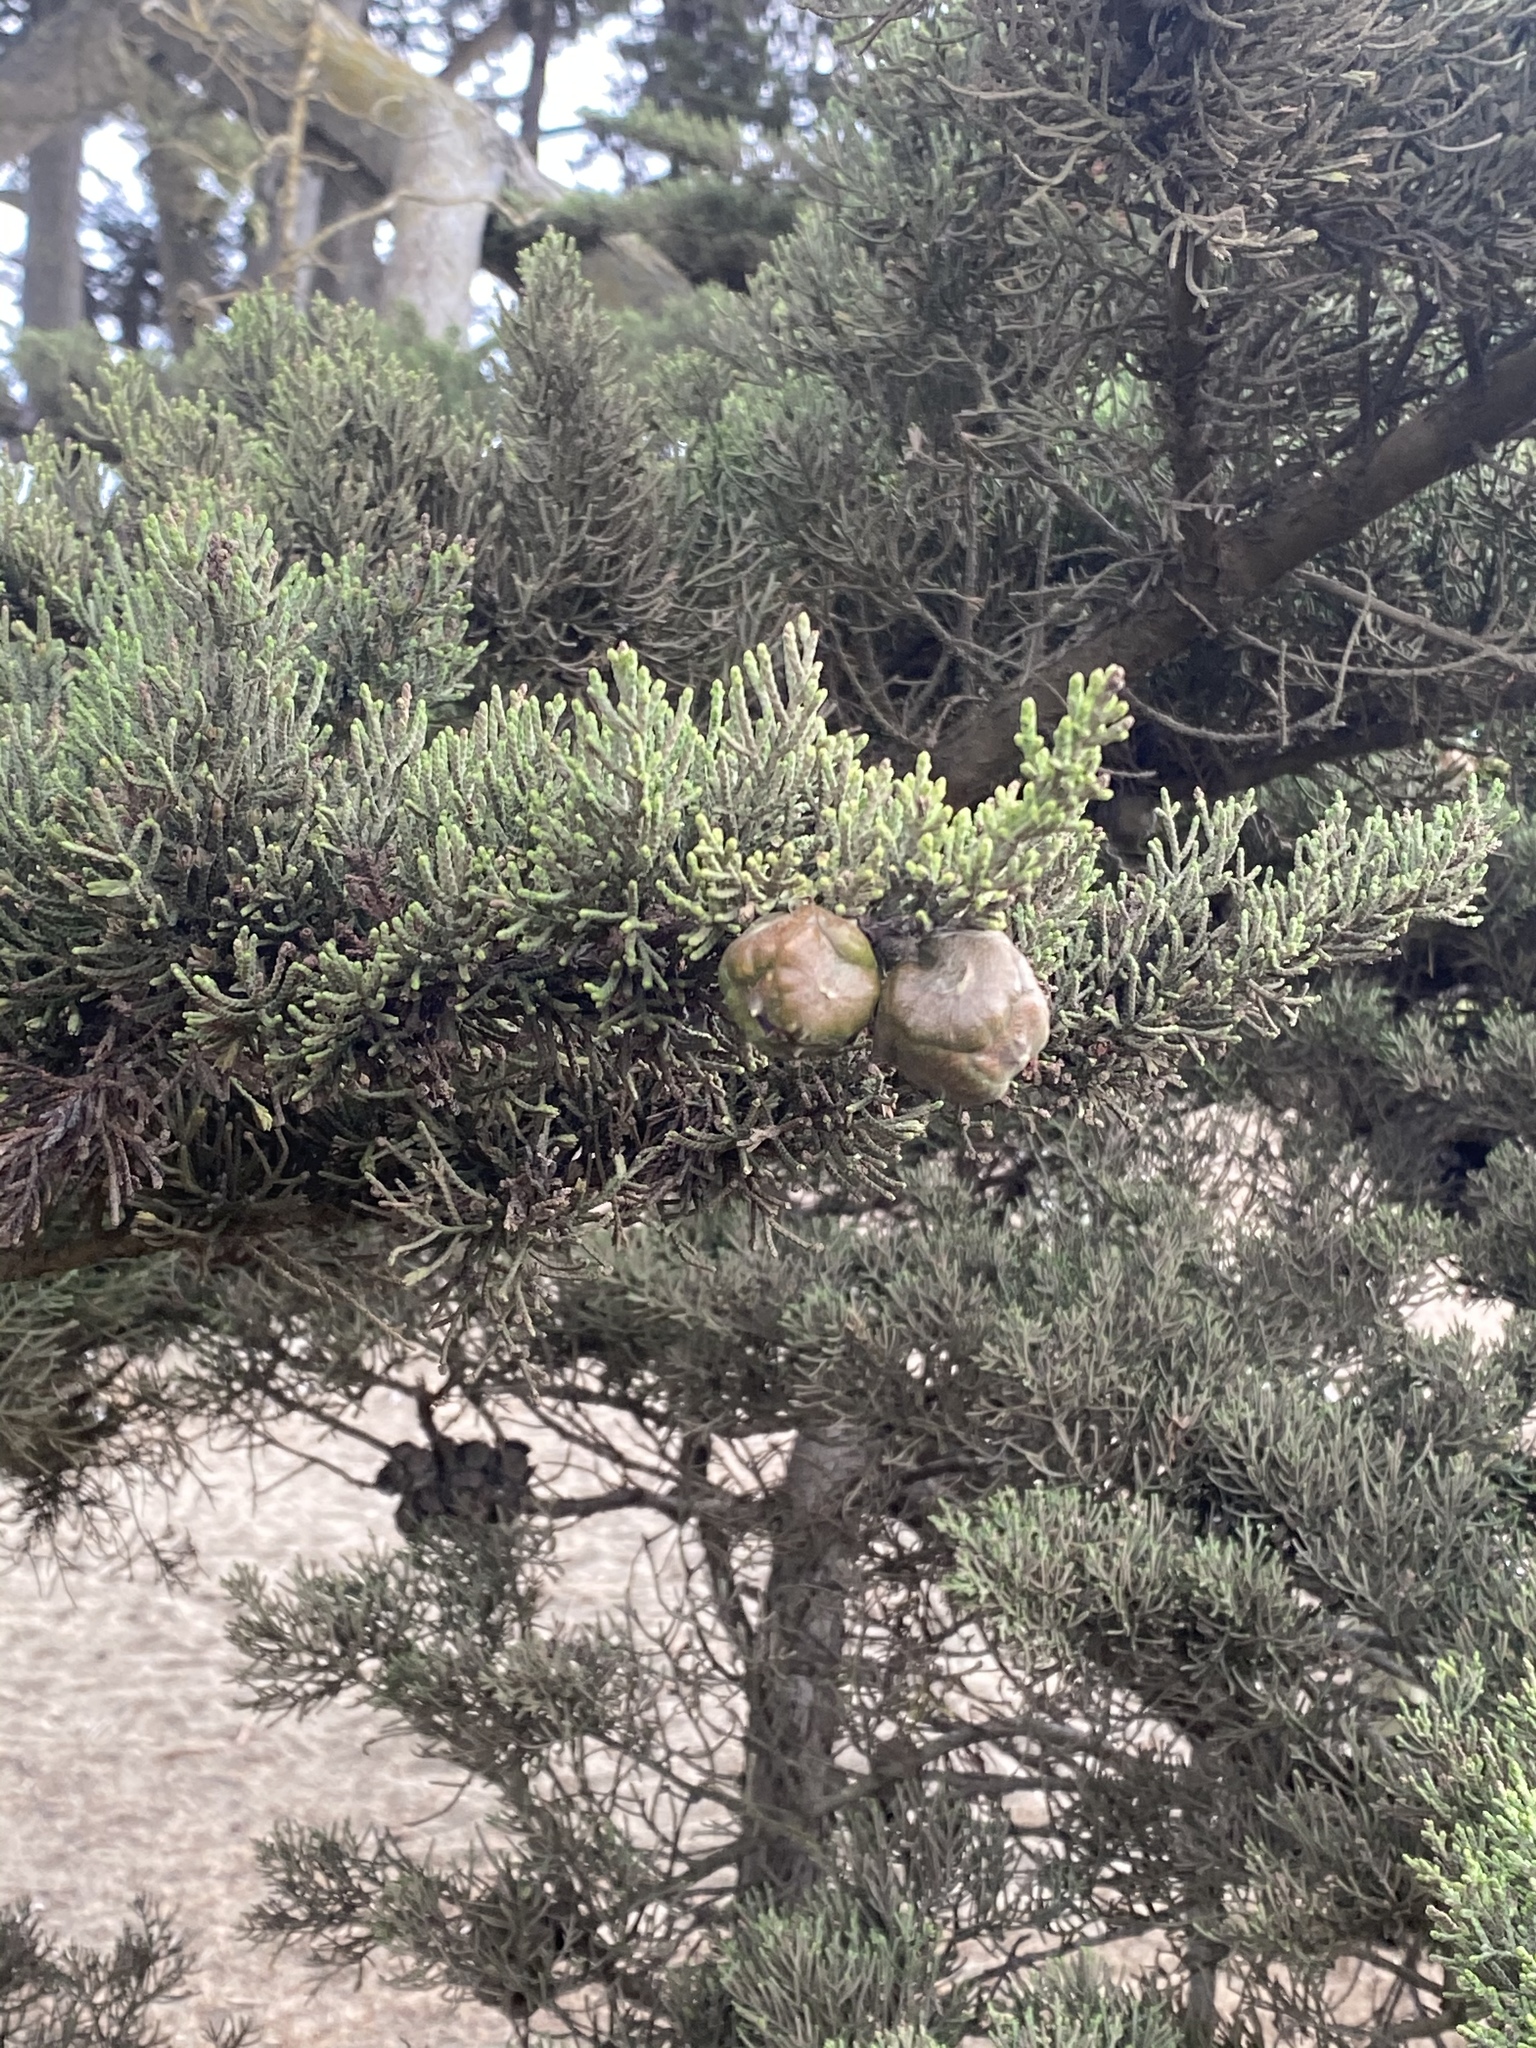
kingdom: Plantae
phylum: Tracheophyta
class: Pinopsida
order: Pinales
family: Cupressaceae
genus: Cupressus
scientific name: Cupressus macrocarpa
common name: Monterey cypress
